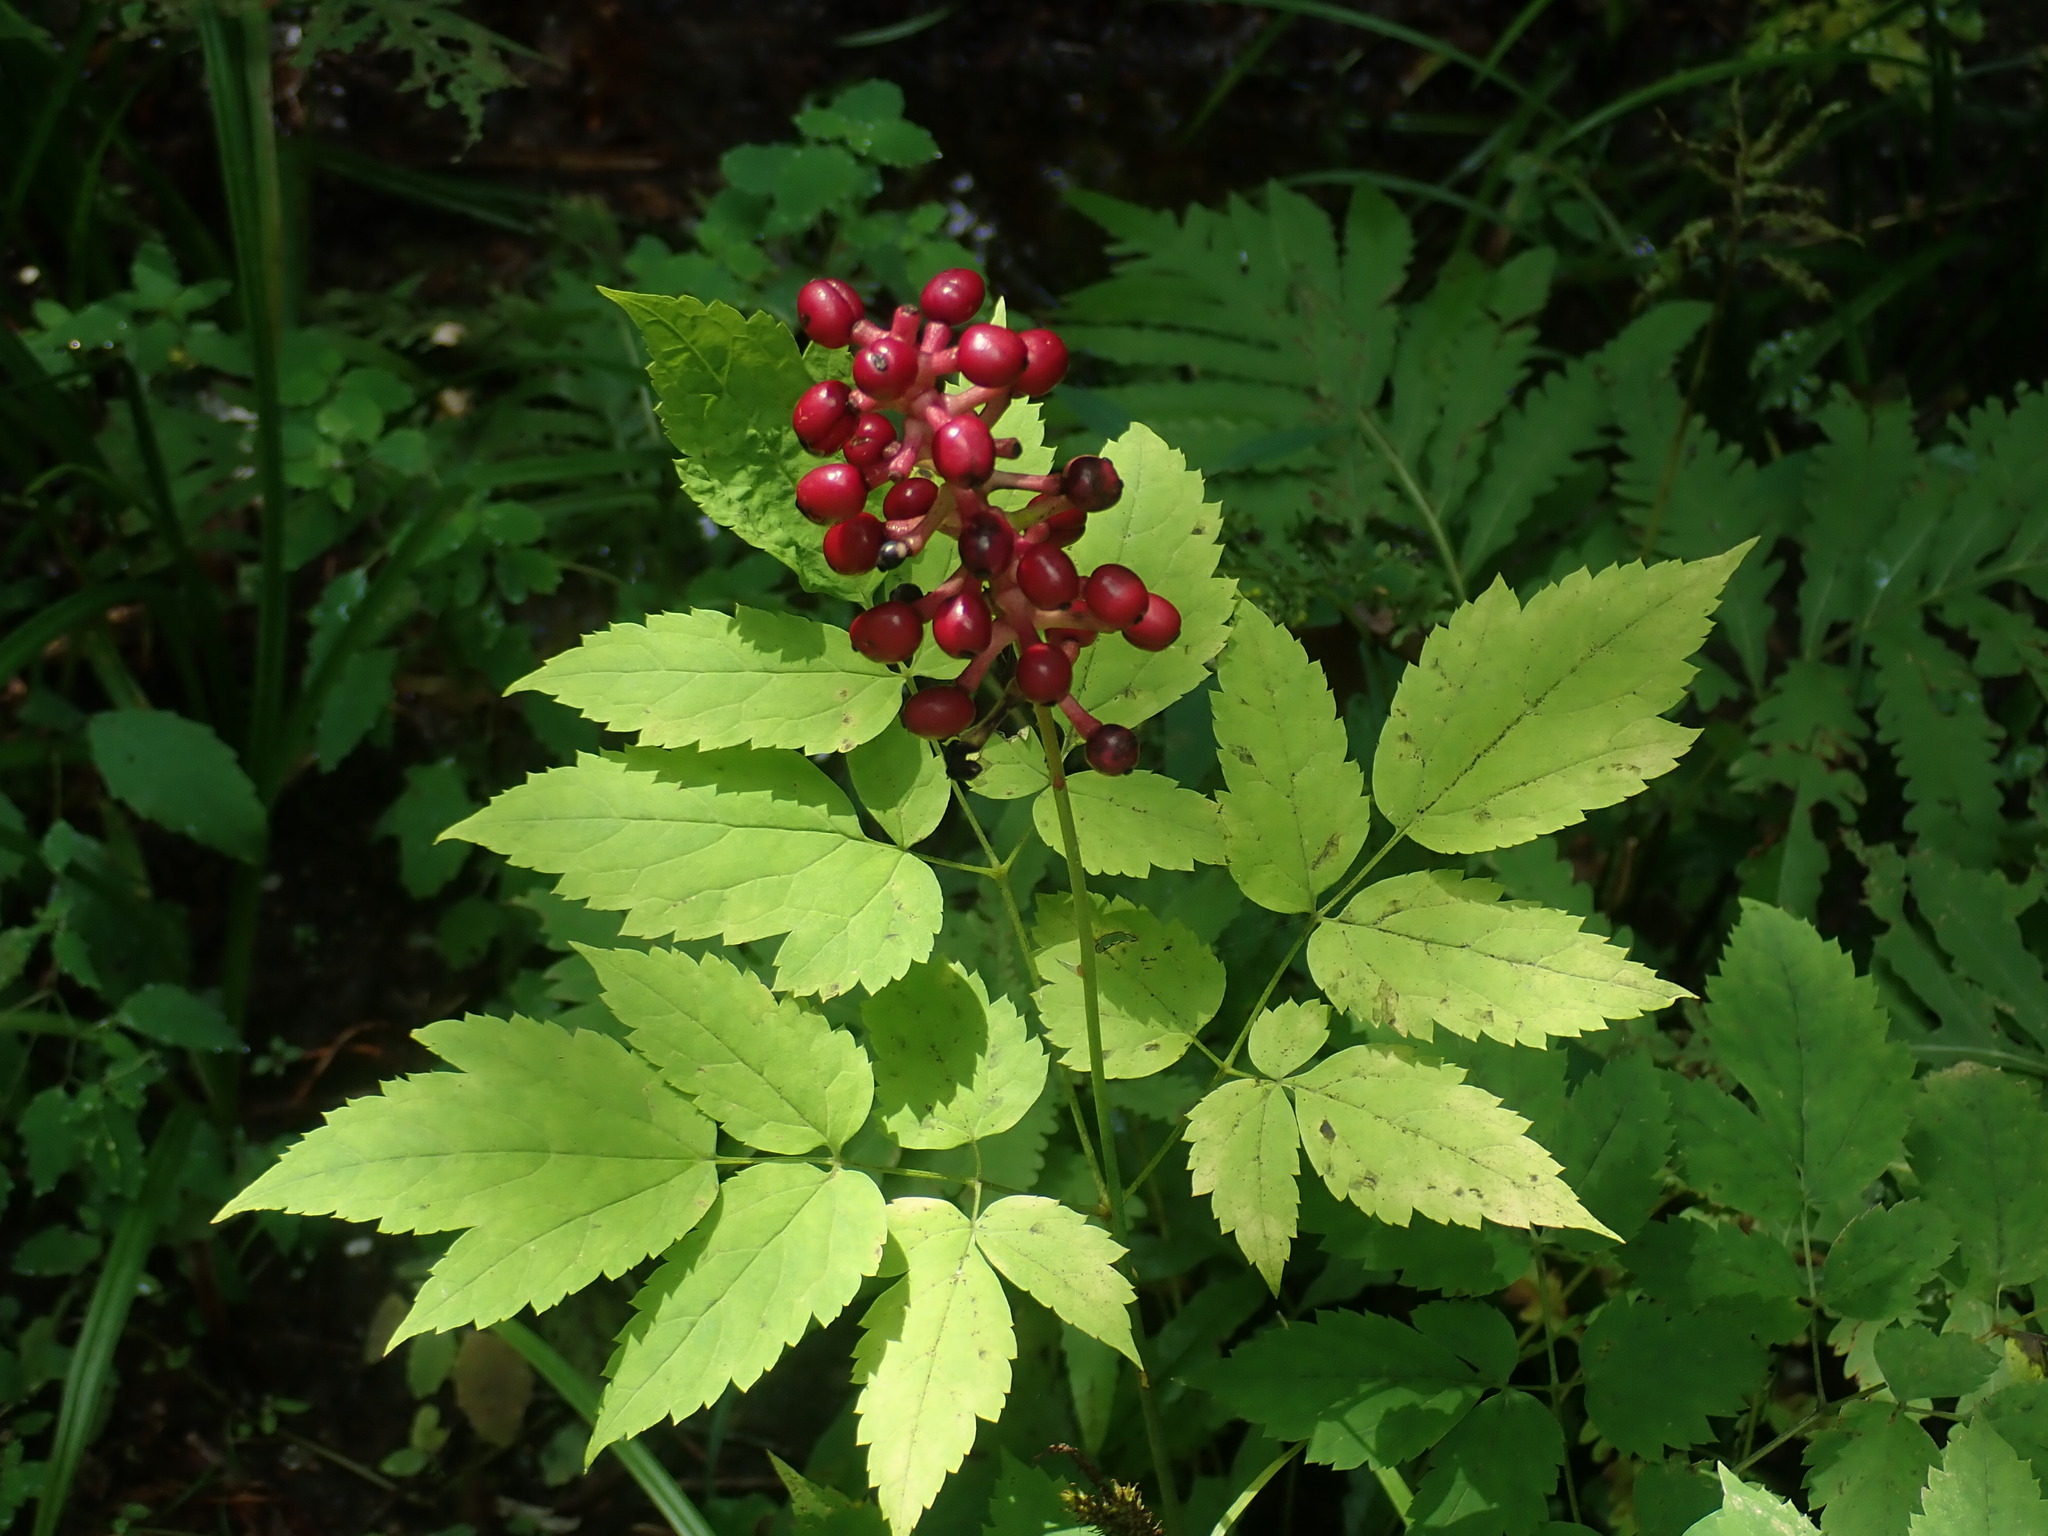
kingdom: Plantae
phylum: Tracheophyta
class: Magnoliopsida
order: Ranunculales
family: Ranunculaceae
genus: Actaea
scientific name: Actaea pachypoda
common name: Doll's-eyes
